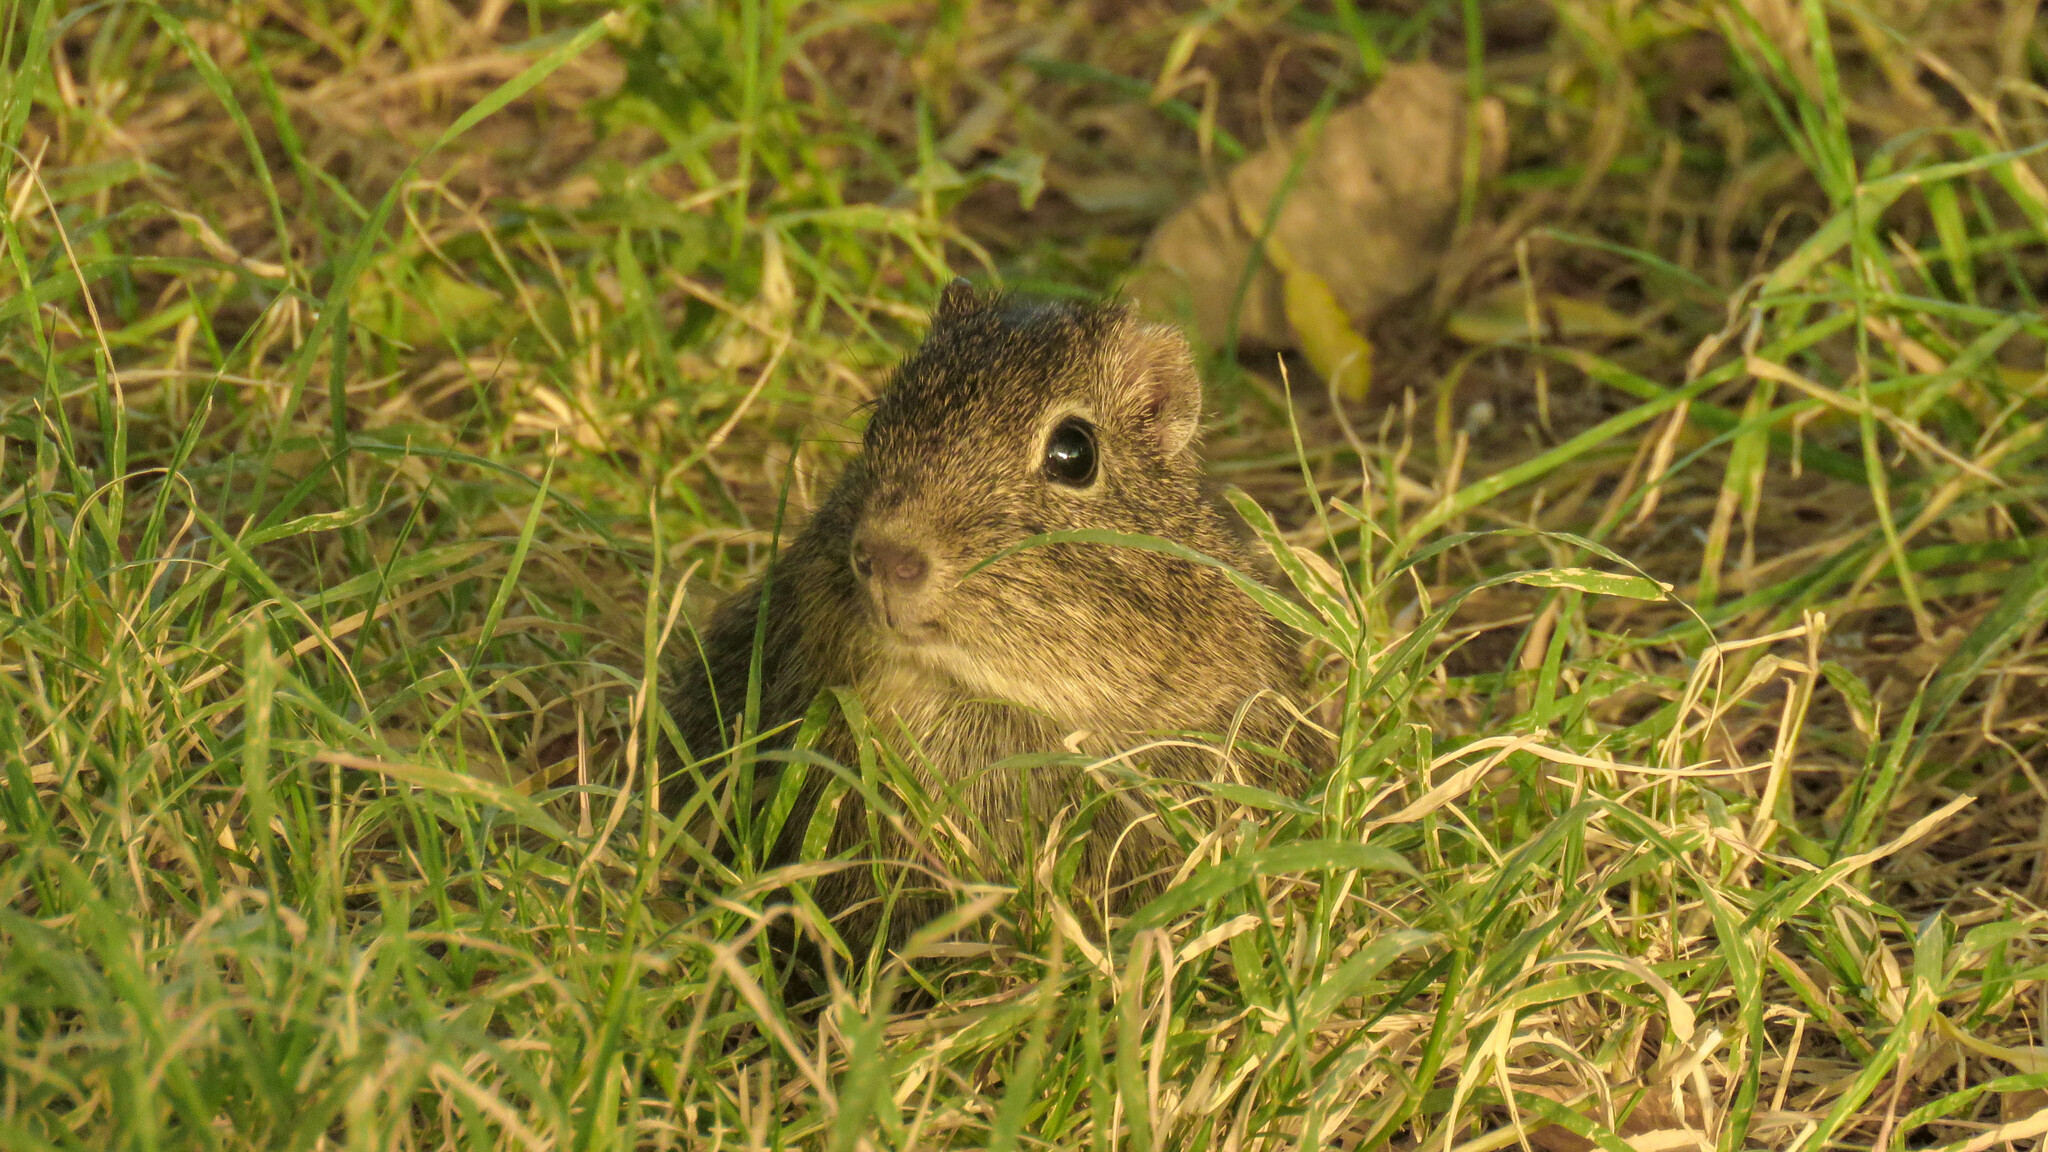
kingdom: Animalia
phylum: Chordata
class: Mammalia
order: Rodentia
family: Caviidae
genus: Microcavia
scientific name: Microcavia australis
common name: Southern mountain cavy
